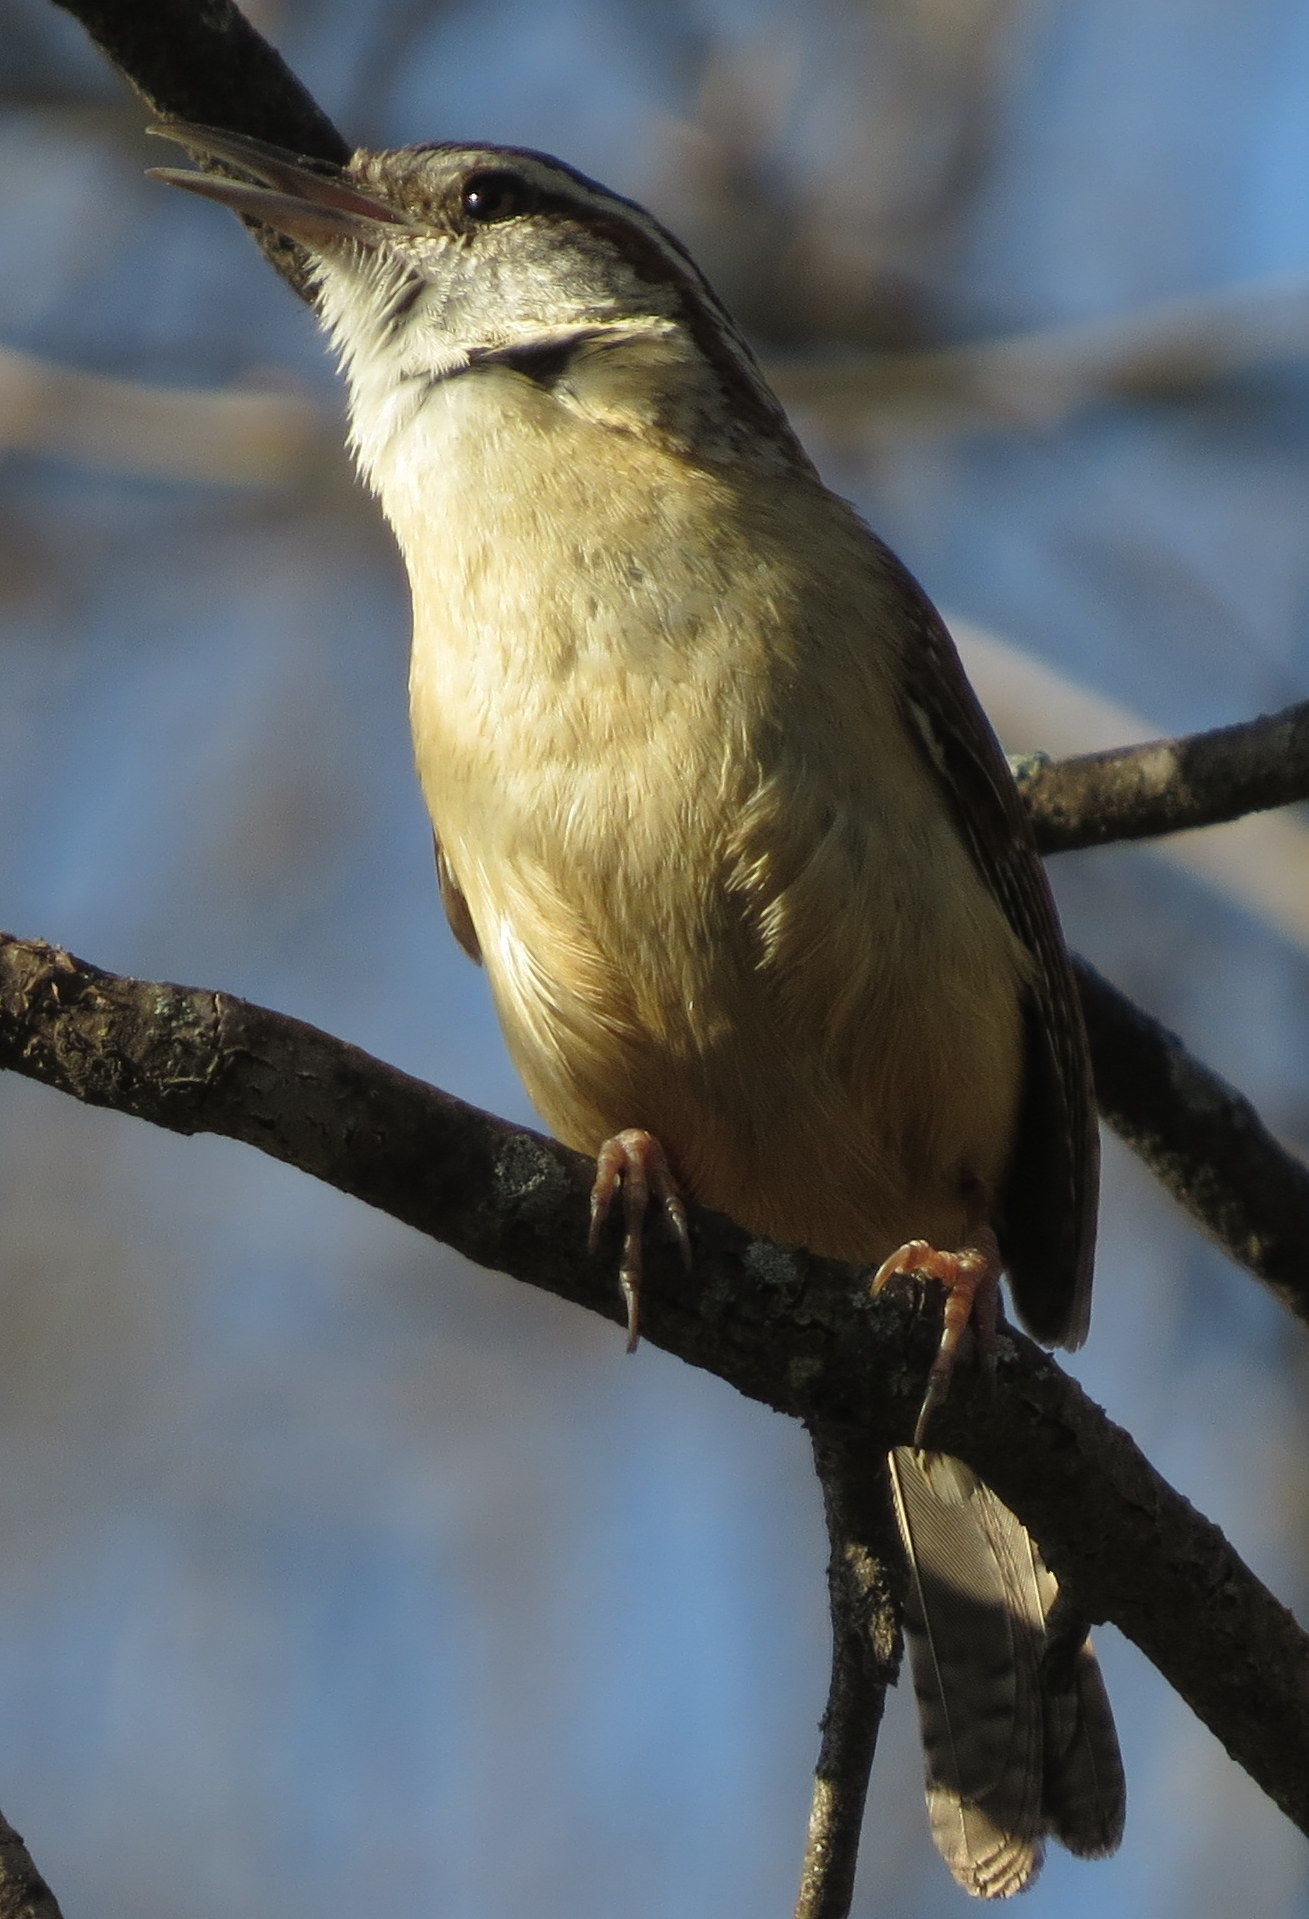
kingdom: Animalia
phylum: Chordata
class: Aves
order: Passeriformes
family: Troglodytidae
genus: Thryothorus
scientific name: Thryothorus ludovicianus
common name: Carolina wren
